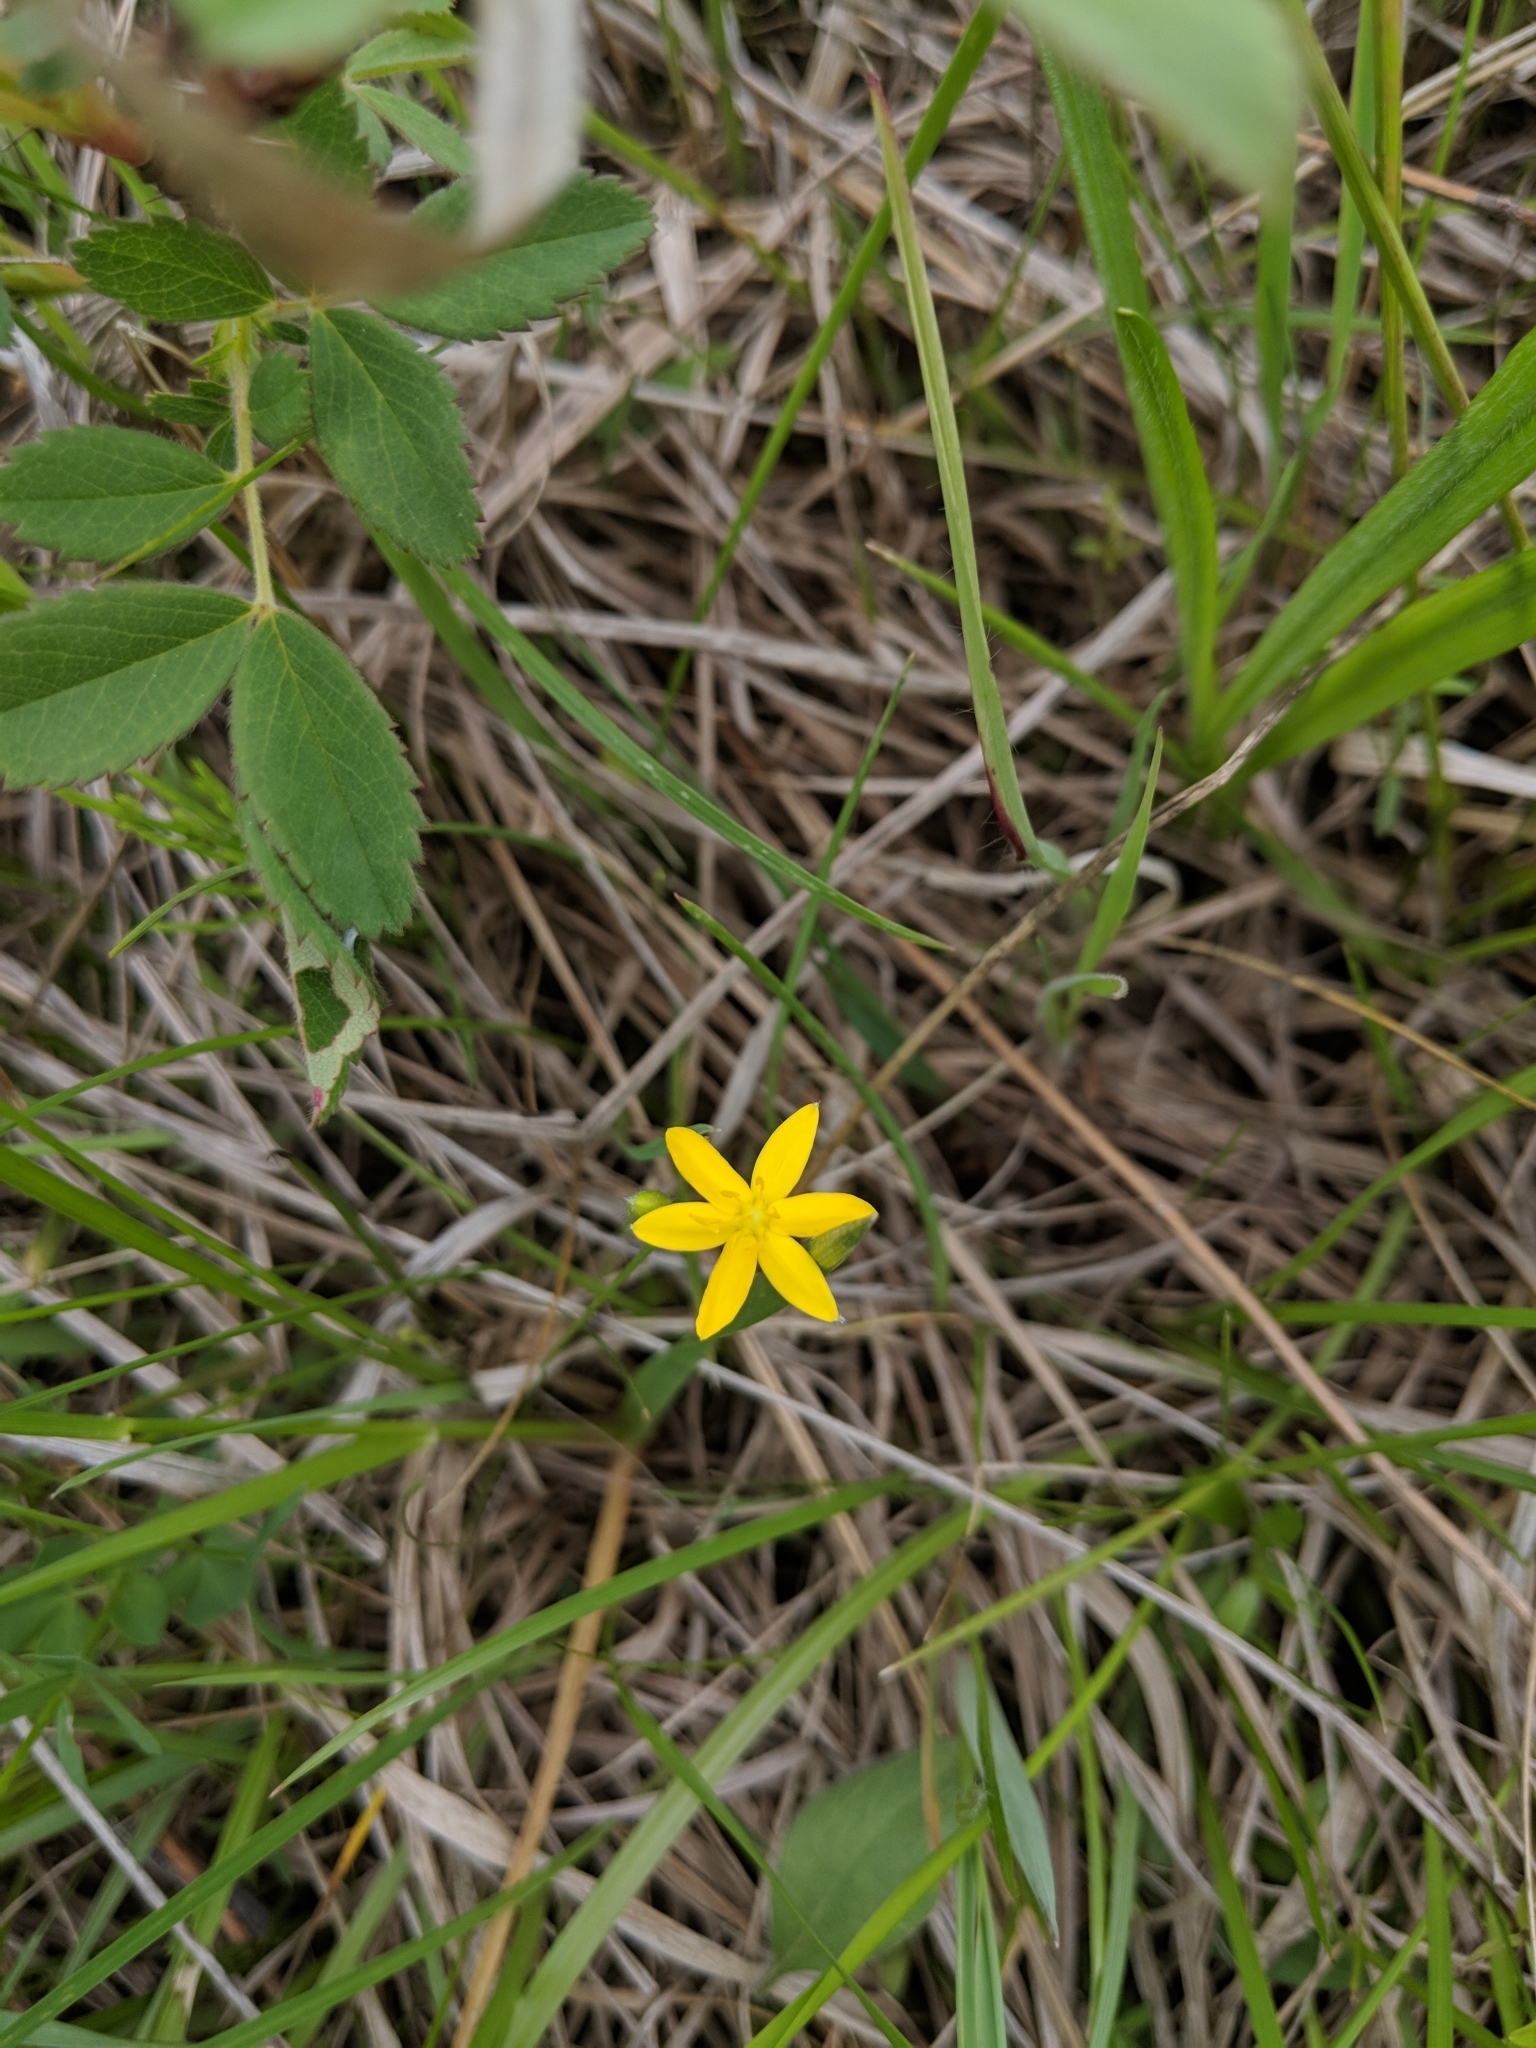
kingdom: Plantae
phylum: Tracheophyta
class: Liliopsida
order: Asparagales
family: Hypoxidaceae
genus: Hypoxis
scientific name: Hypoxis hirsuta
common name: Common goldstar
